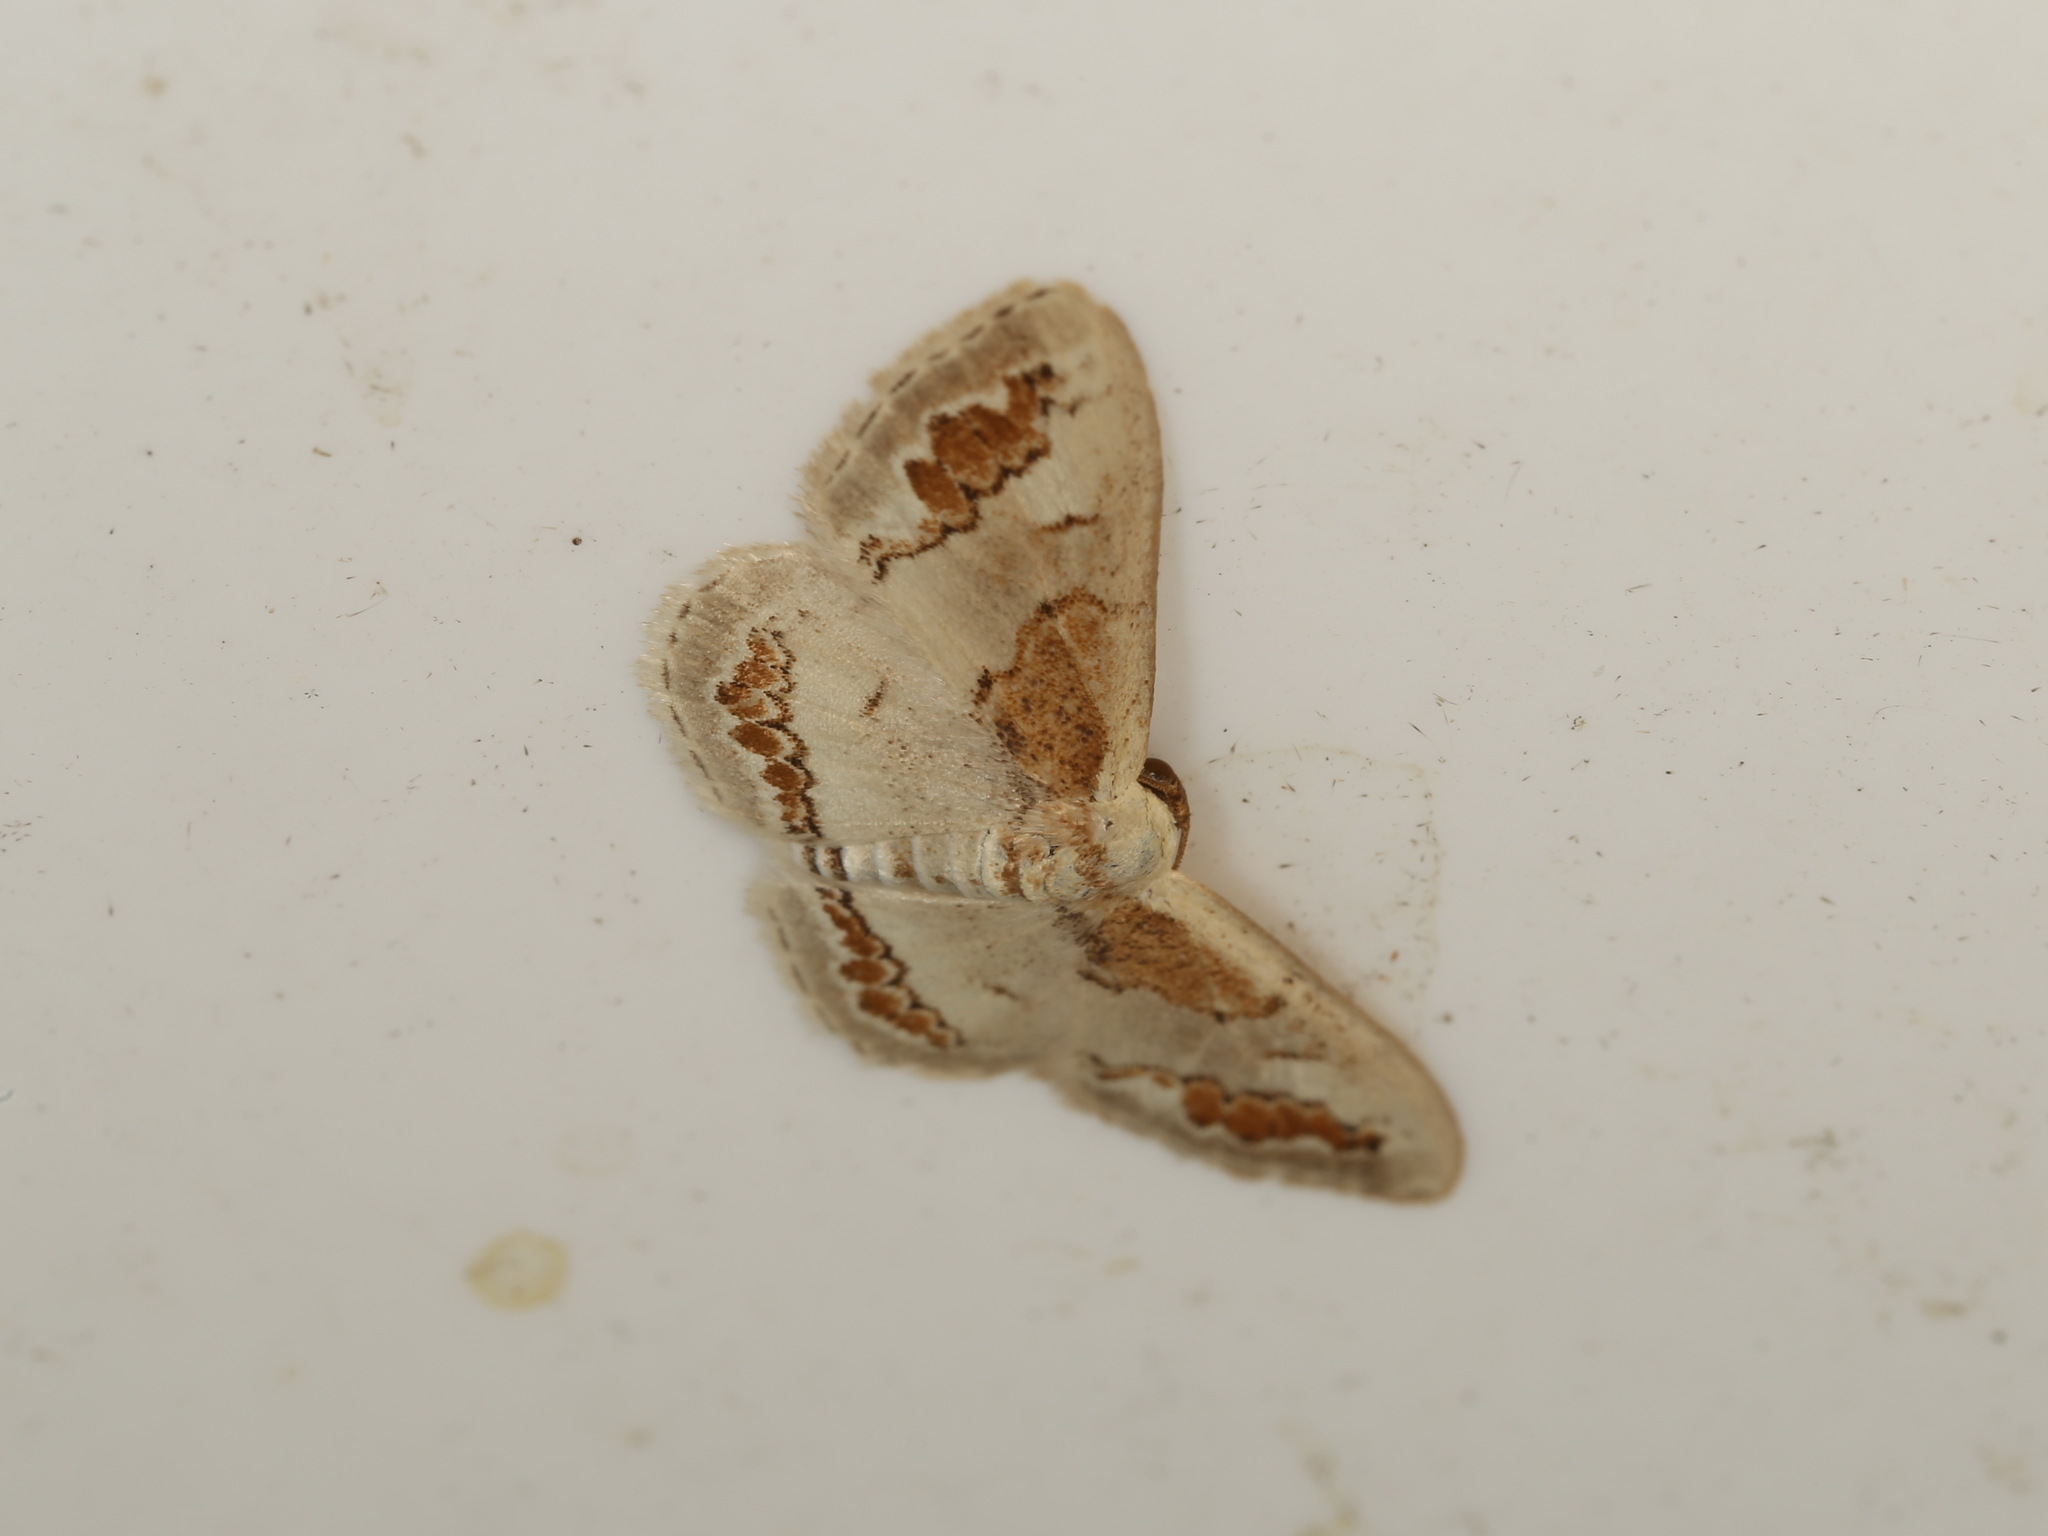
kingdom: Animalia
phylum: Arthropoda
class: Insecta
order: Lepidoptera
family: Geometridae
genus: Dithalama
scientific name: Dithalama cosmospila
